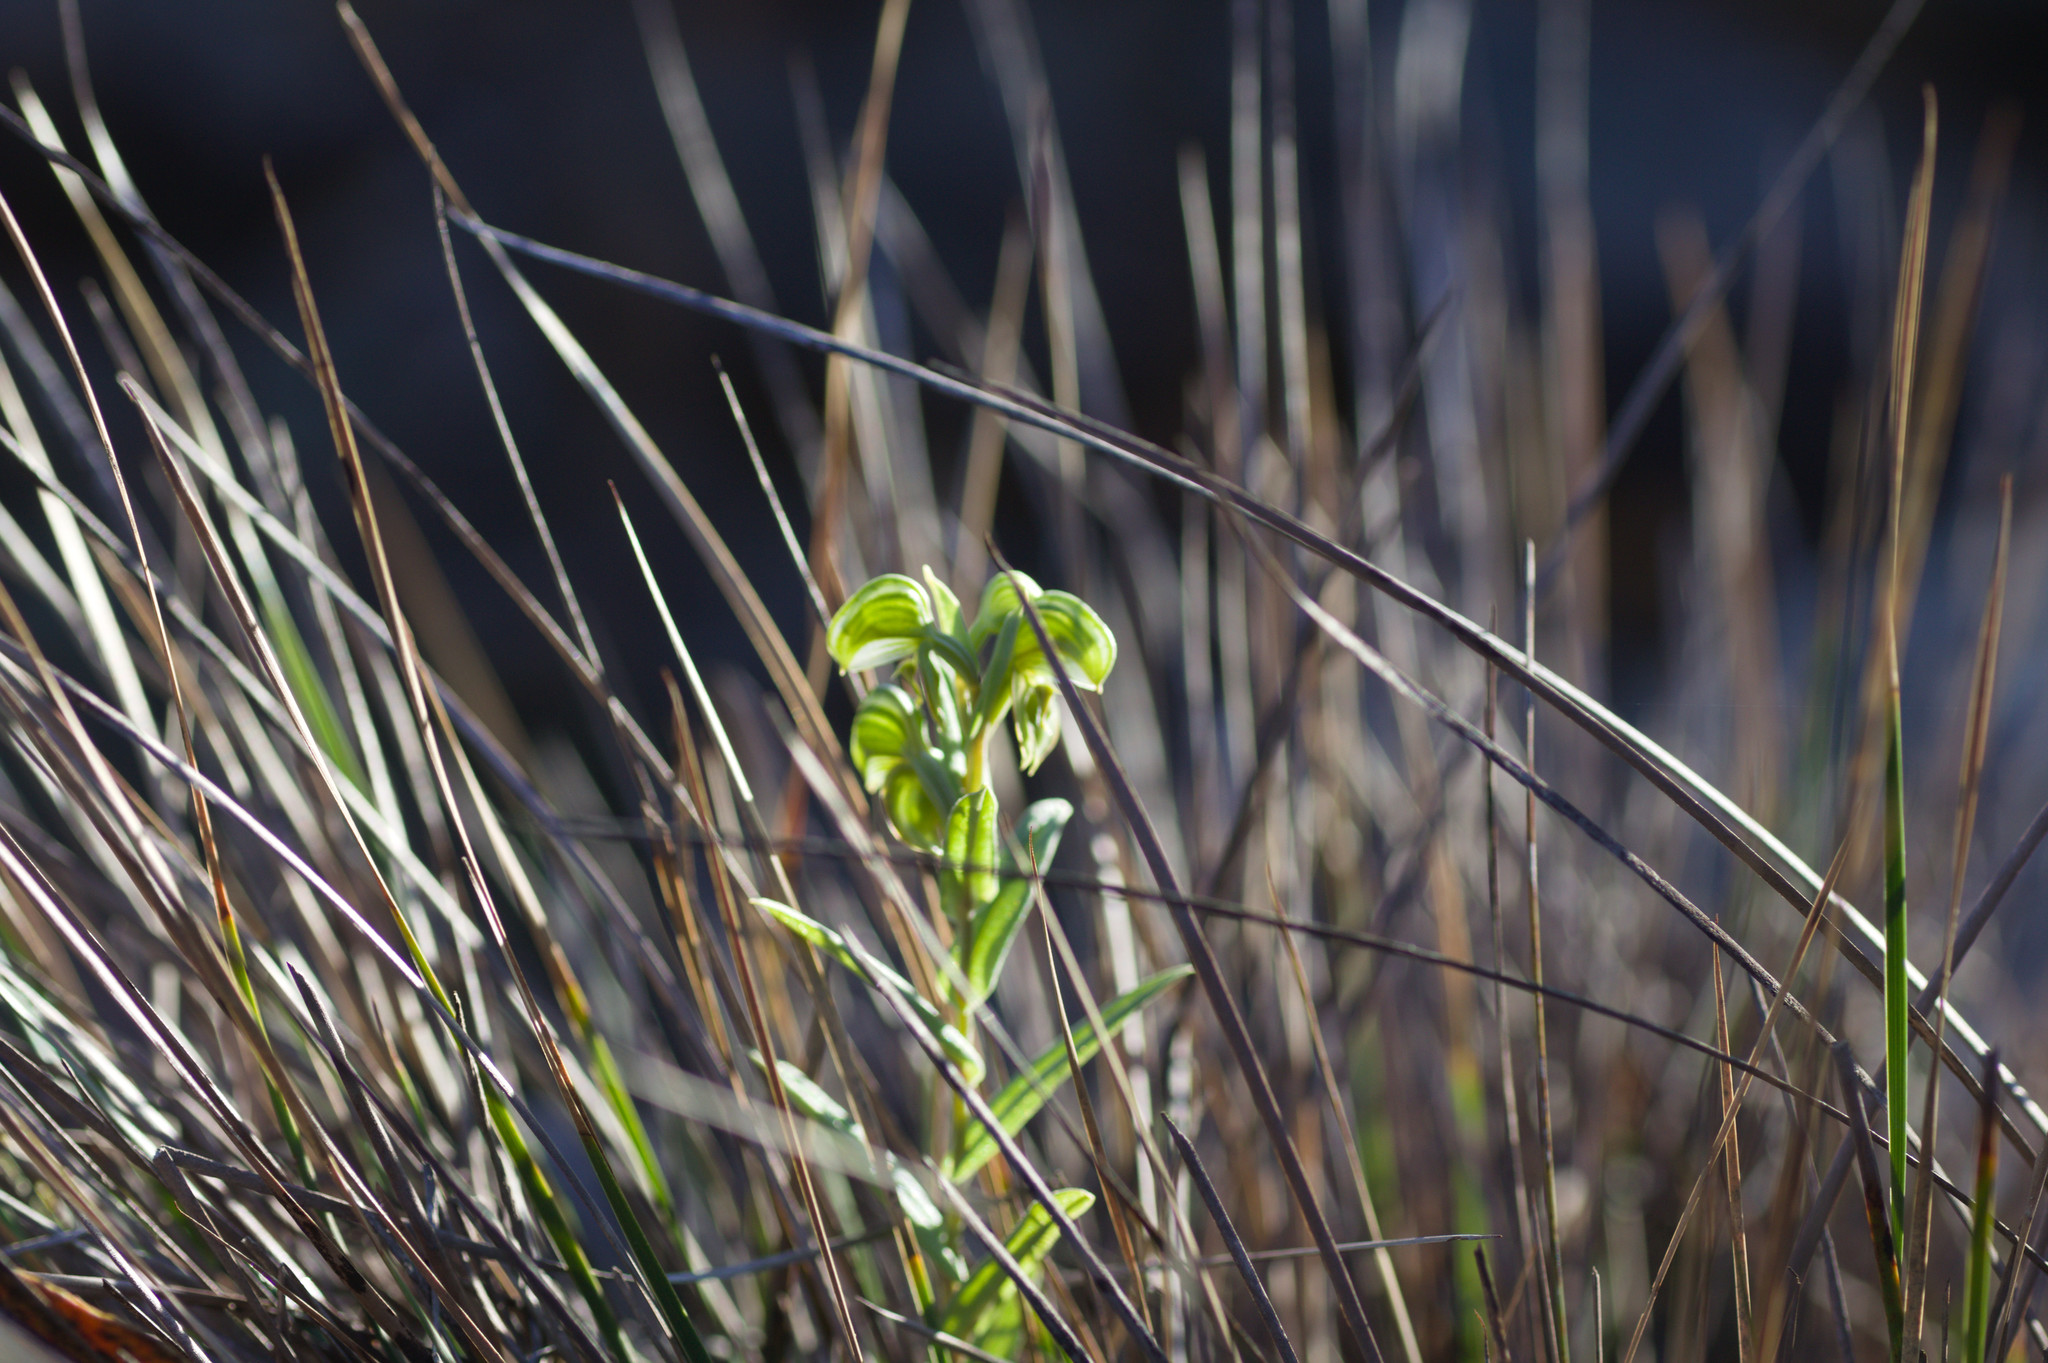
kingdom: Plantae
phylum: Tracheophyta
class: Liliopsida
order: Asparagales
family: Orchidaceae
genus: Pterostylis
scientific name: Pterostylis sanguinea
